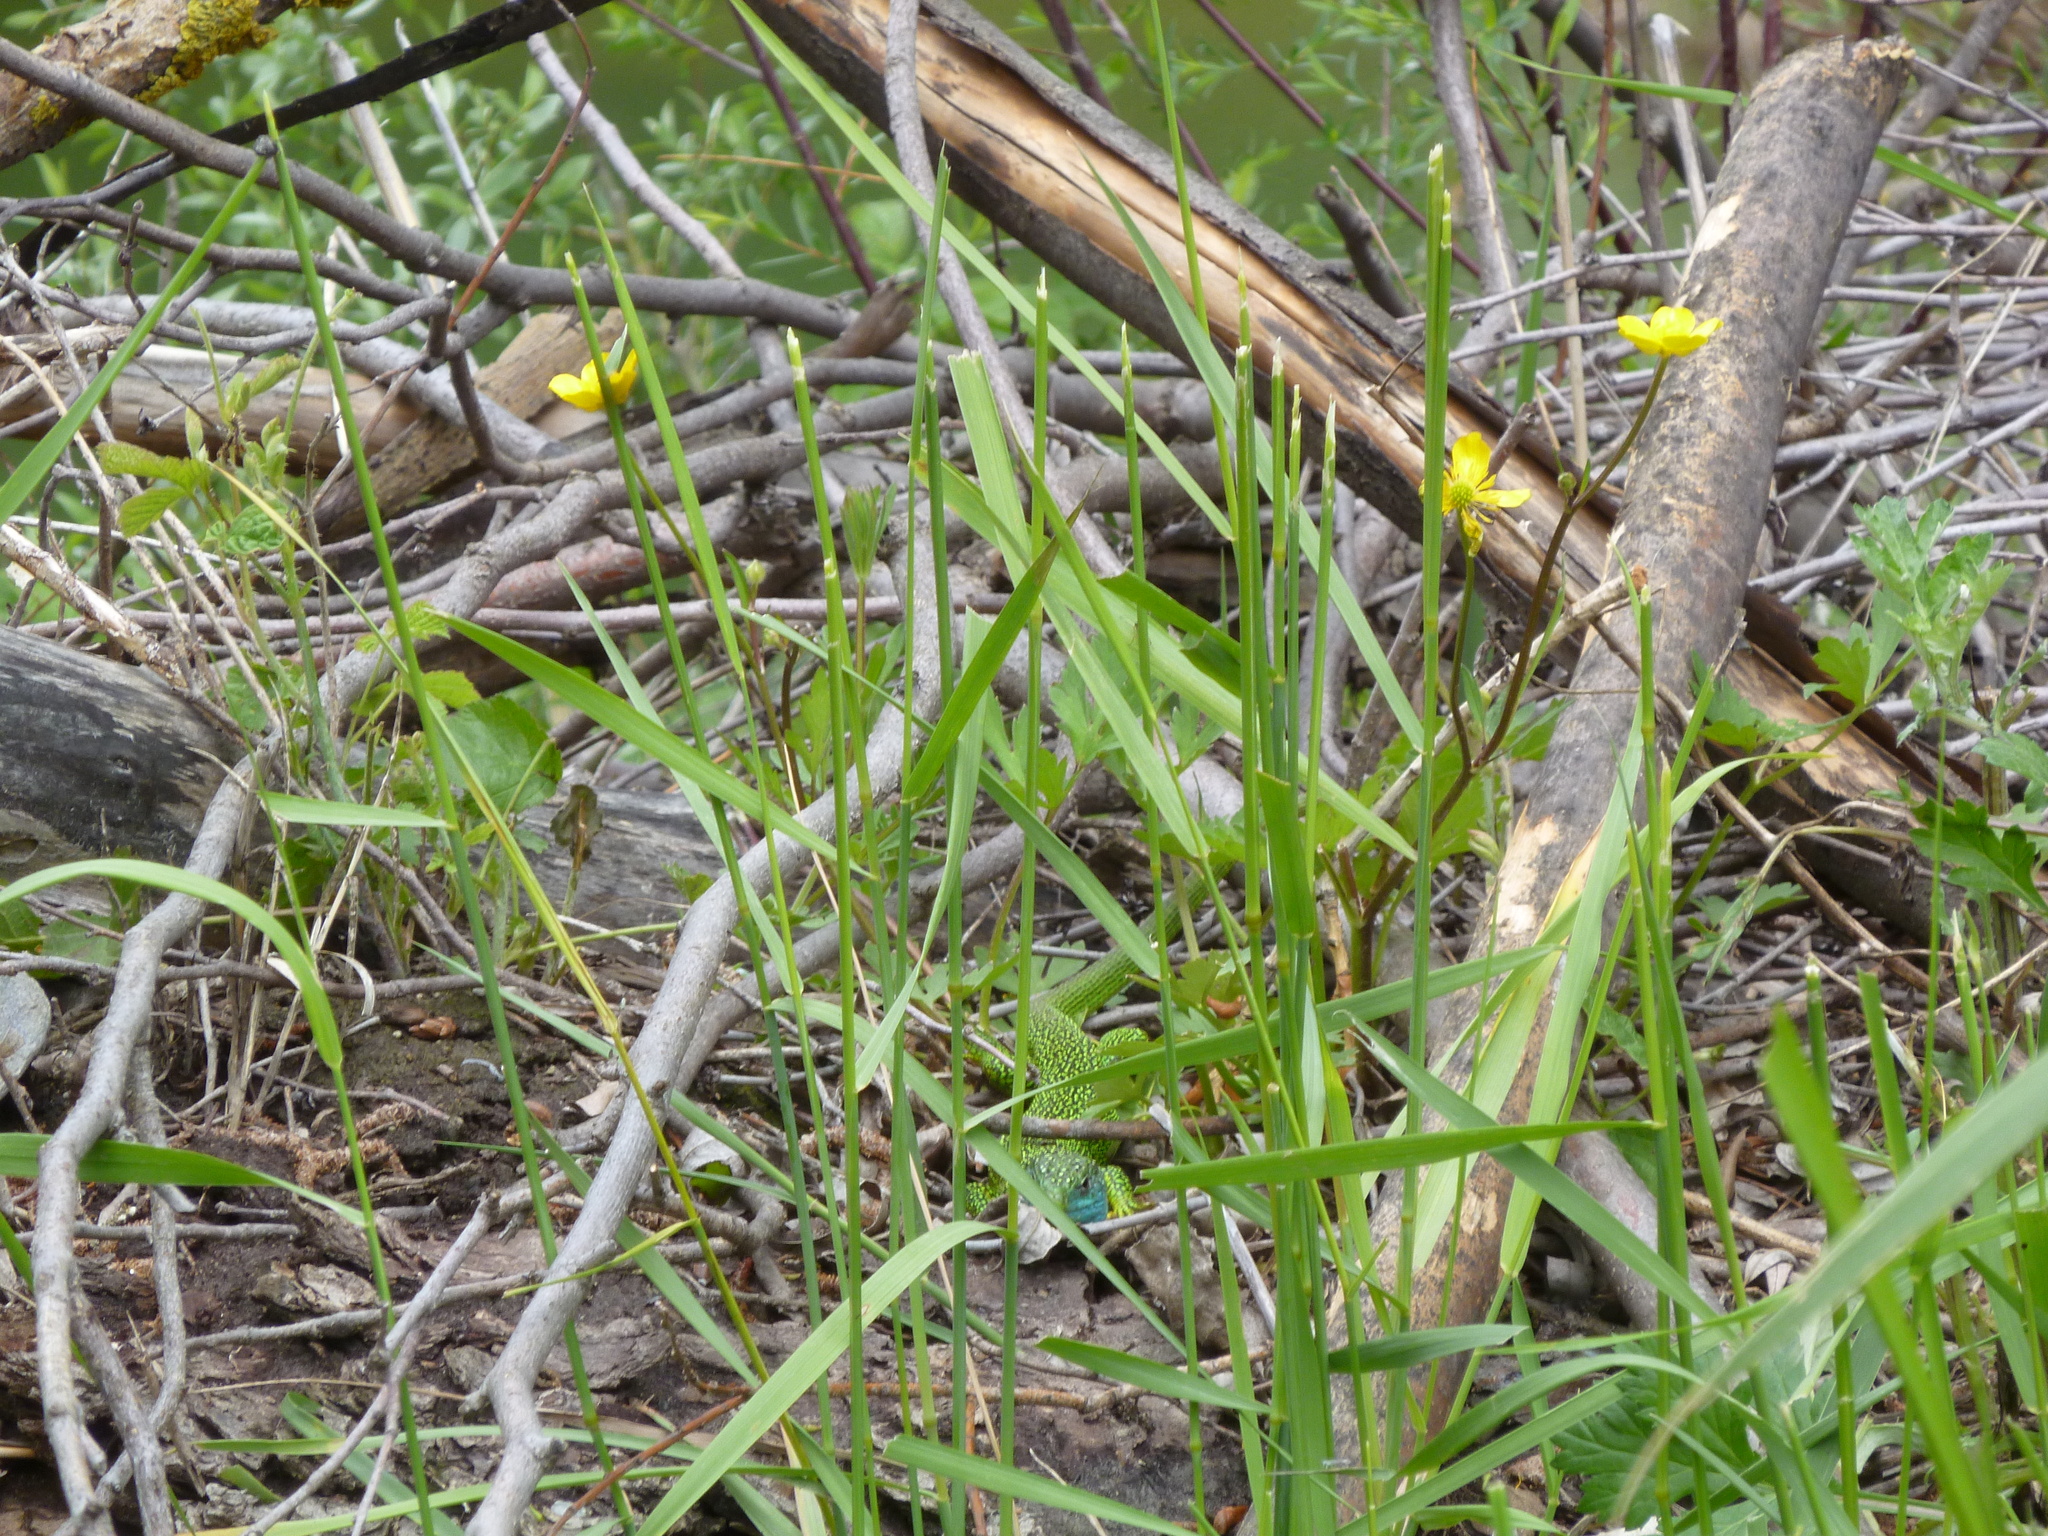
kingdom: Animalia
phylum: Chordata
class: Squamata
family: Lacertidae
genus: Lacerta
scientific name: Lacerta bilineata
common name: Western green lizard
